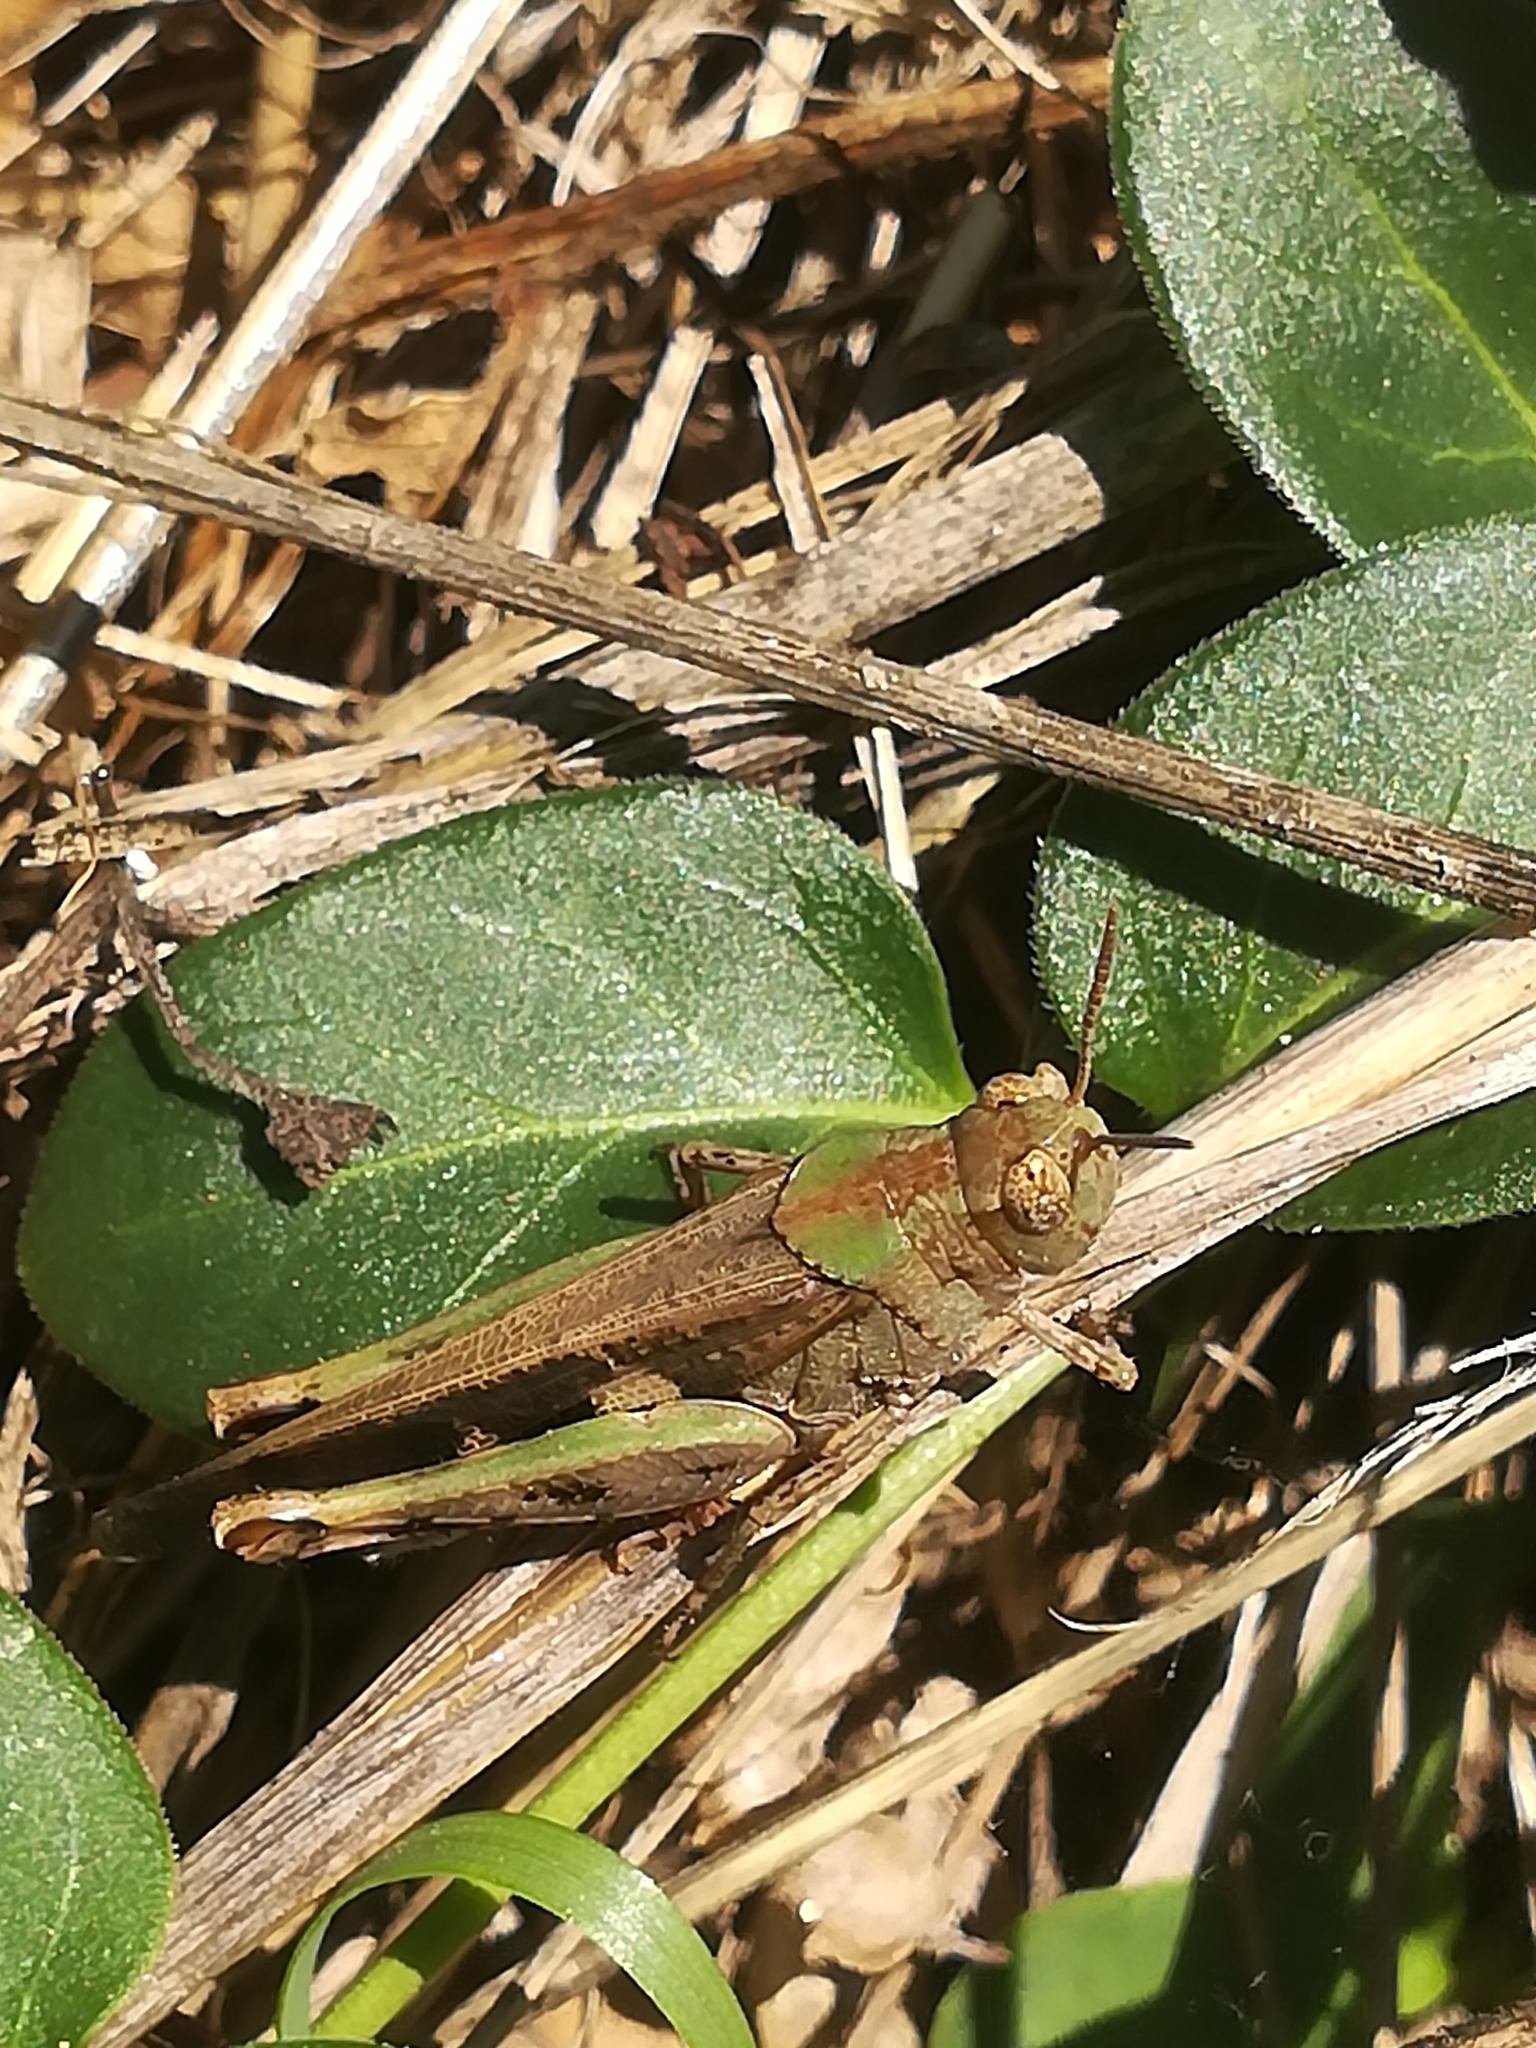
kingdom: Animalia
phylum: Arthropoda
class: Insecta
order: Orthoptera
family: Acrididae
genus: Aiolopus
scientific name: Aiolopus strepens
